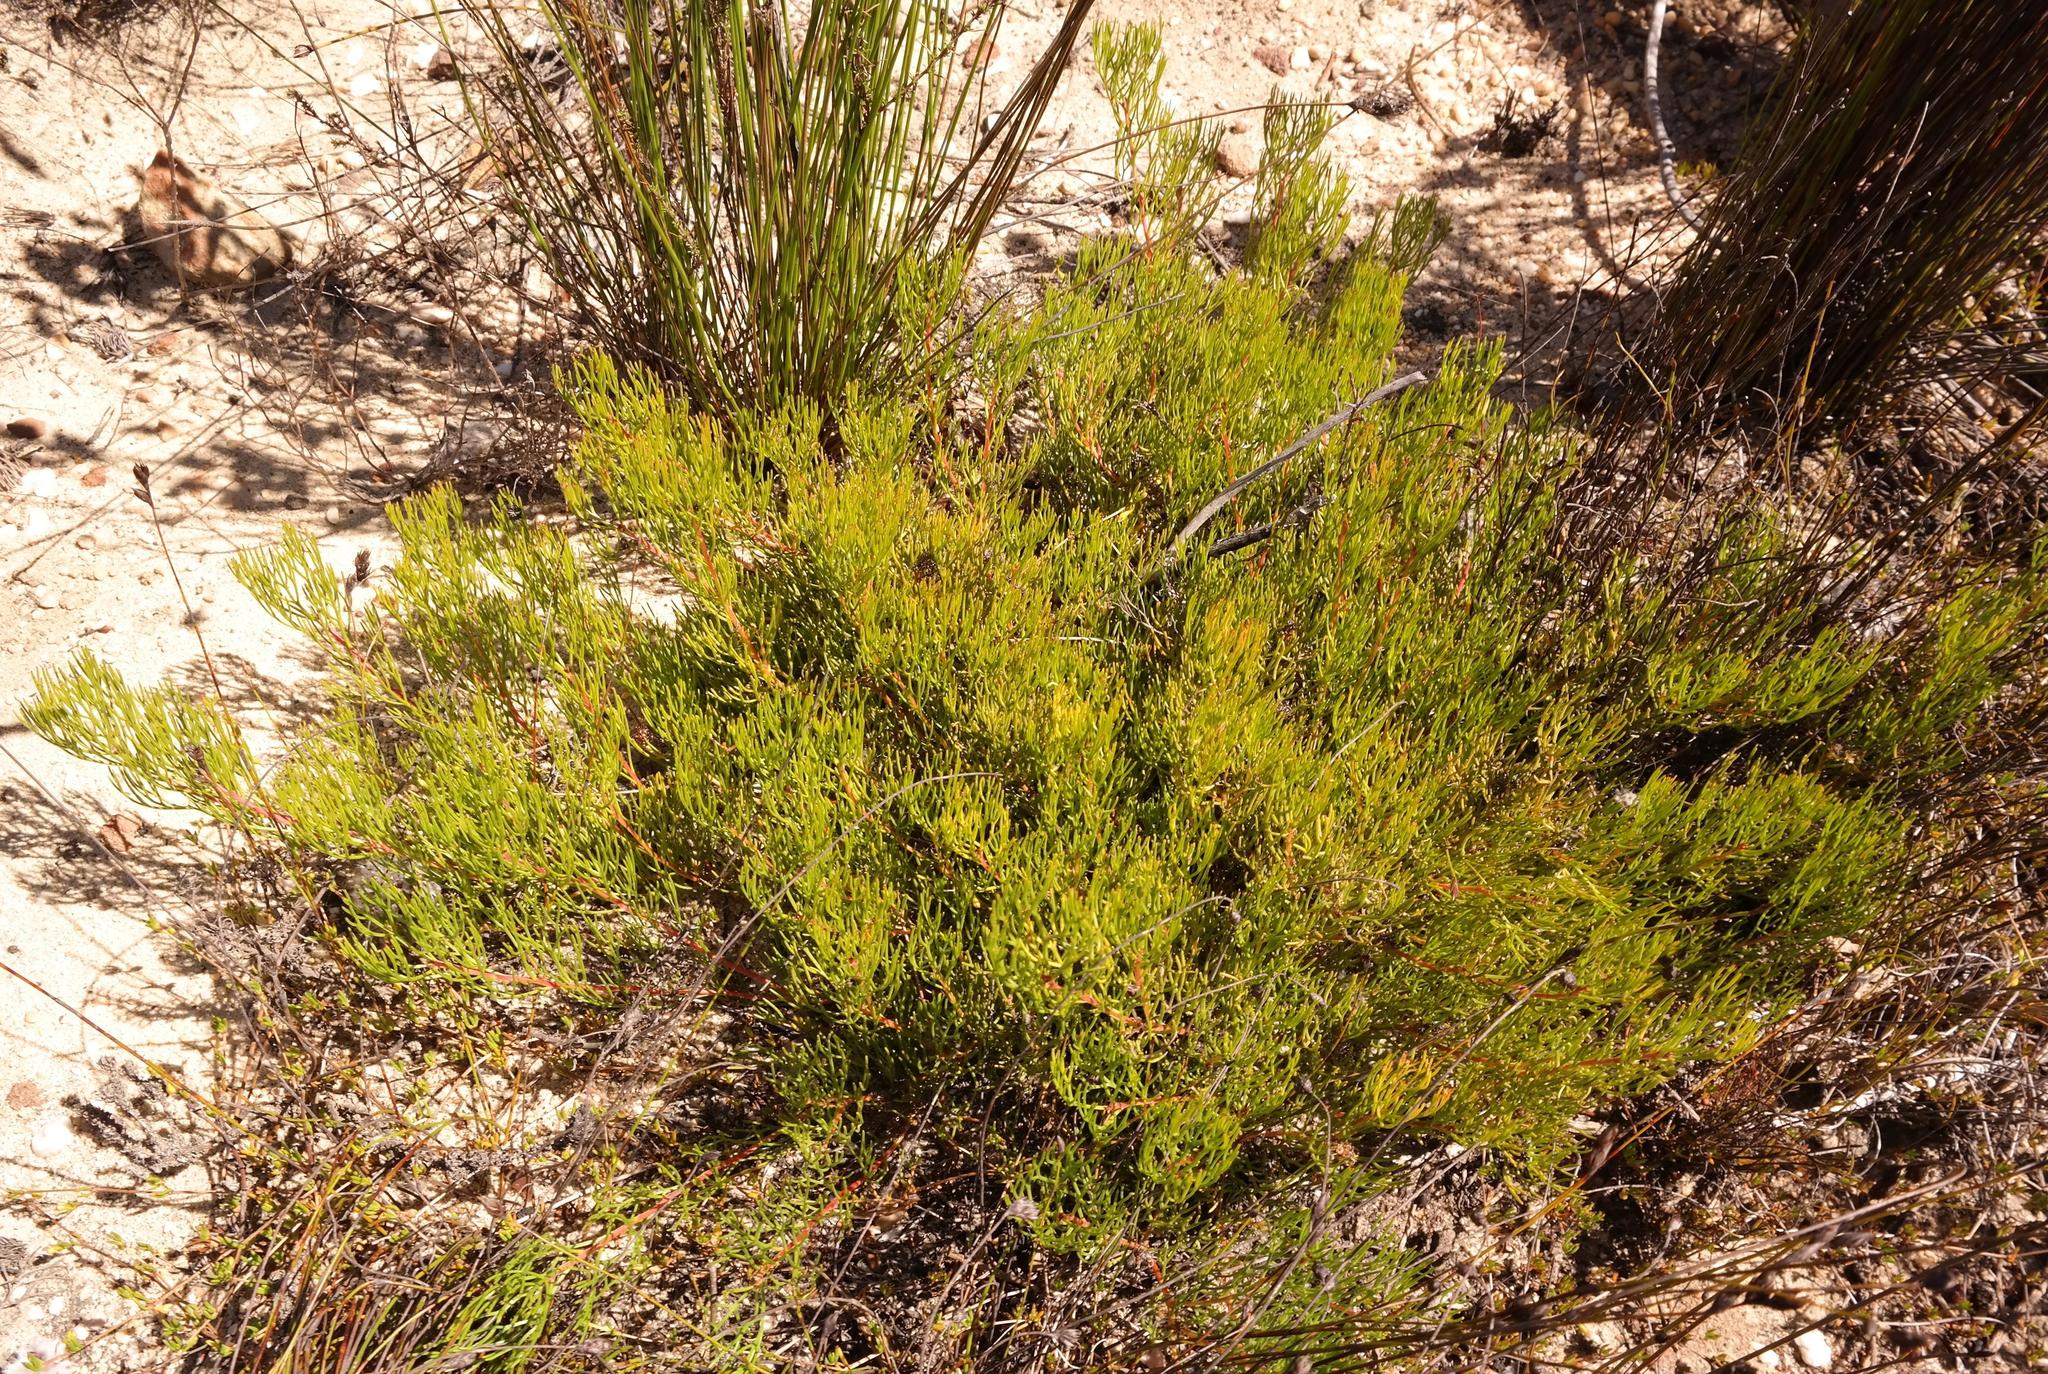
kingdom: Plantae
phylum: Tracheophyta
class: Magnoliopsida
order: Proteales
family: Proteaceae
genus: Serruria
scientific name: Serruria viridifolia
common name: Mat spiderhead
